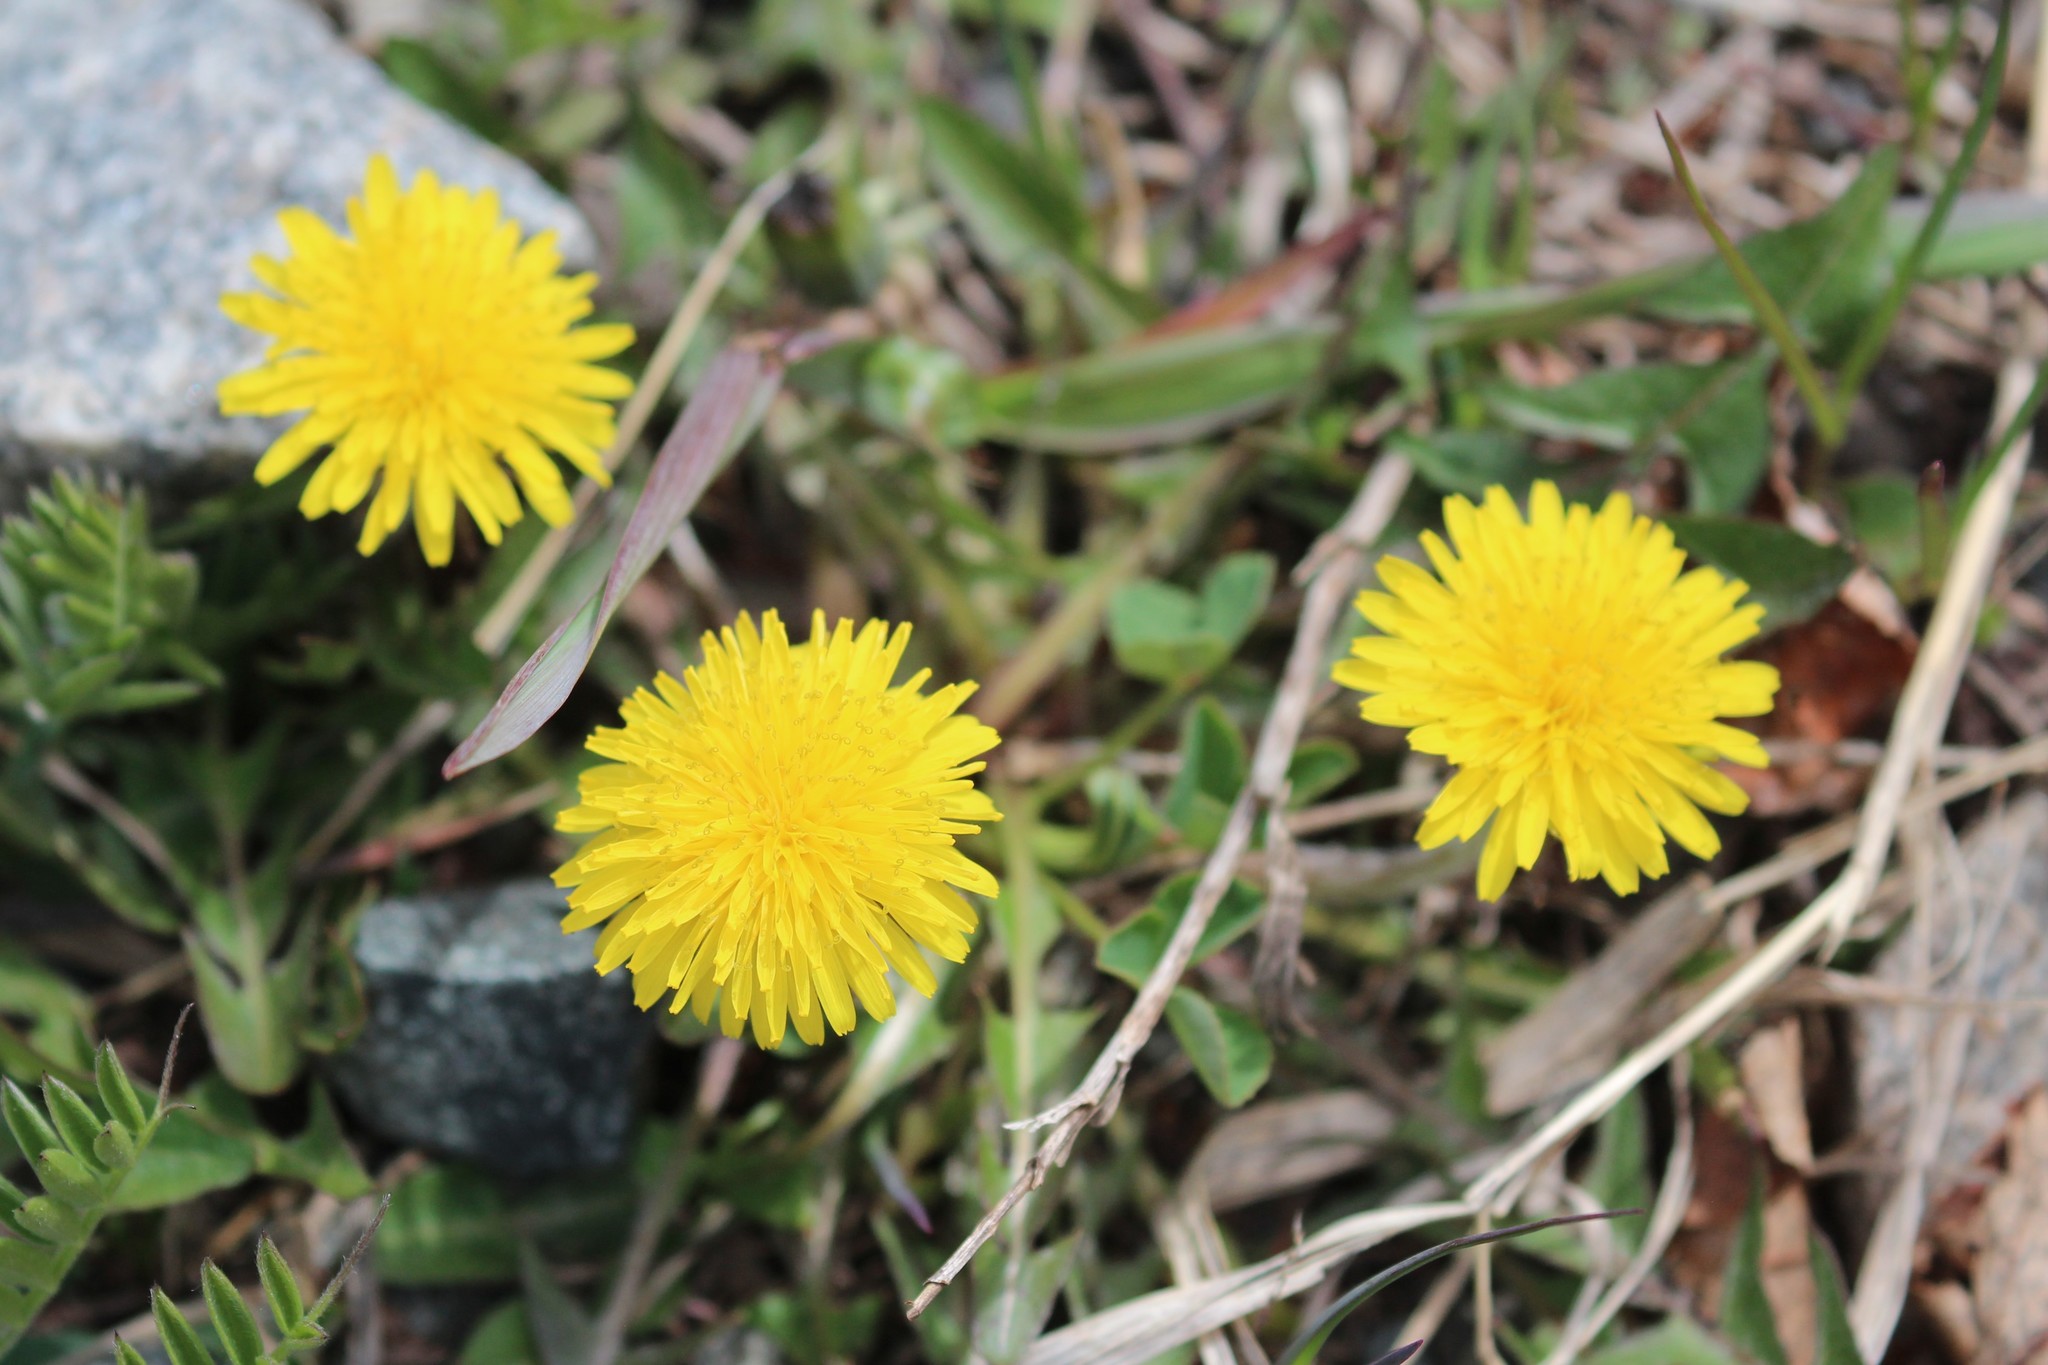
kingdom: Plantae
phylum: Tracheophyta
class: Magnoliopsida
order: Asterales
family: Asteraceae
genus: Taraxacum
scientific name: Taraxacum officinale
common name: Common dandelion
